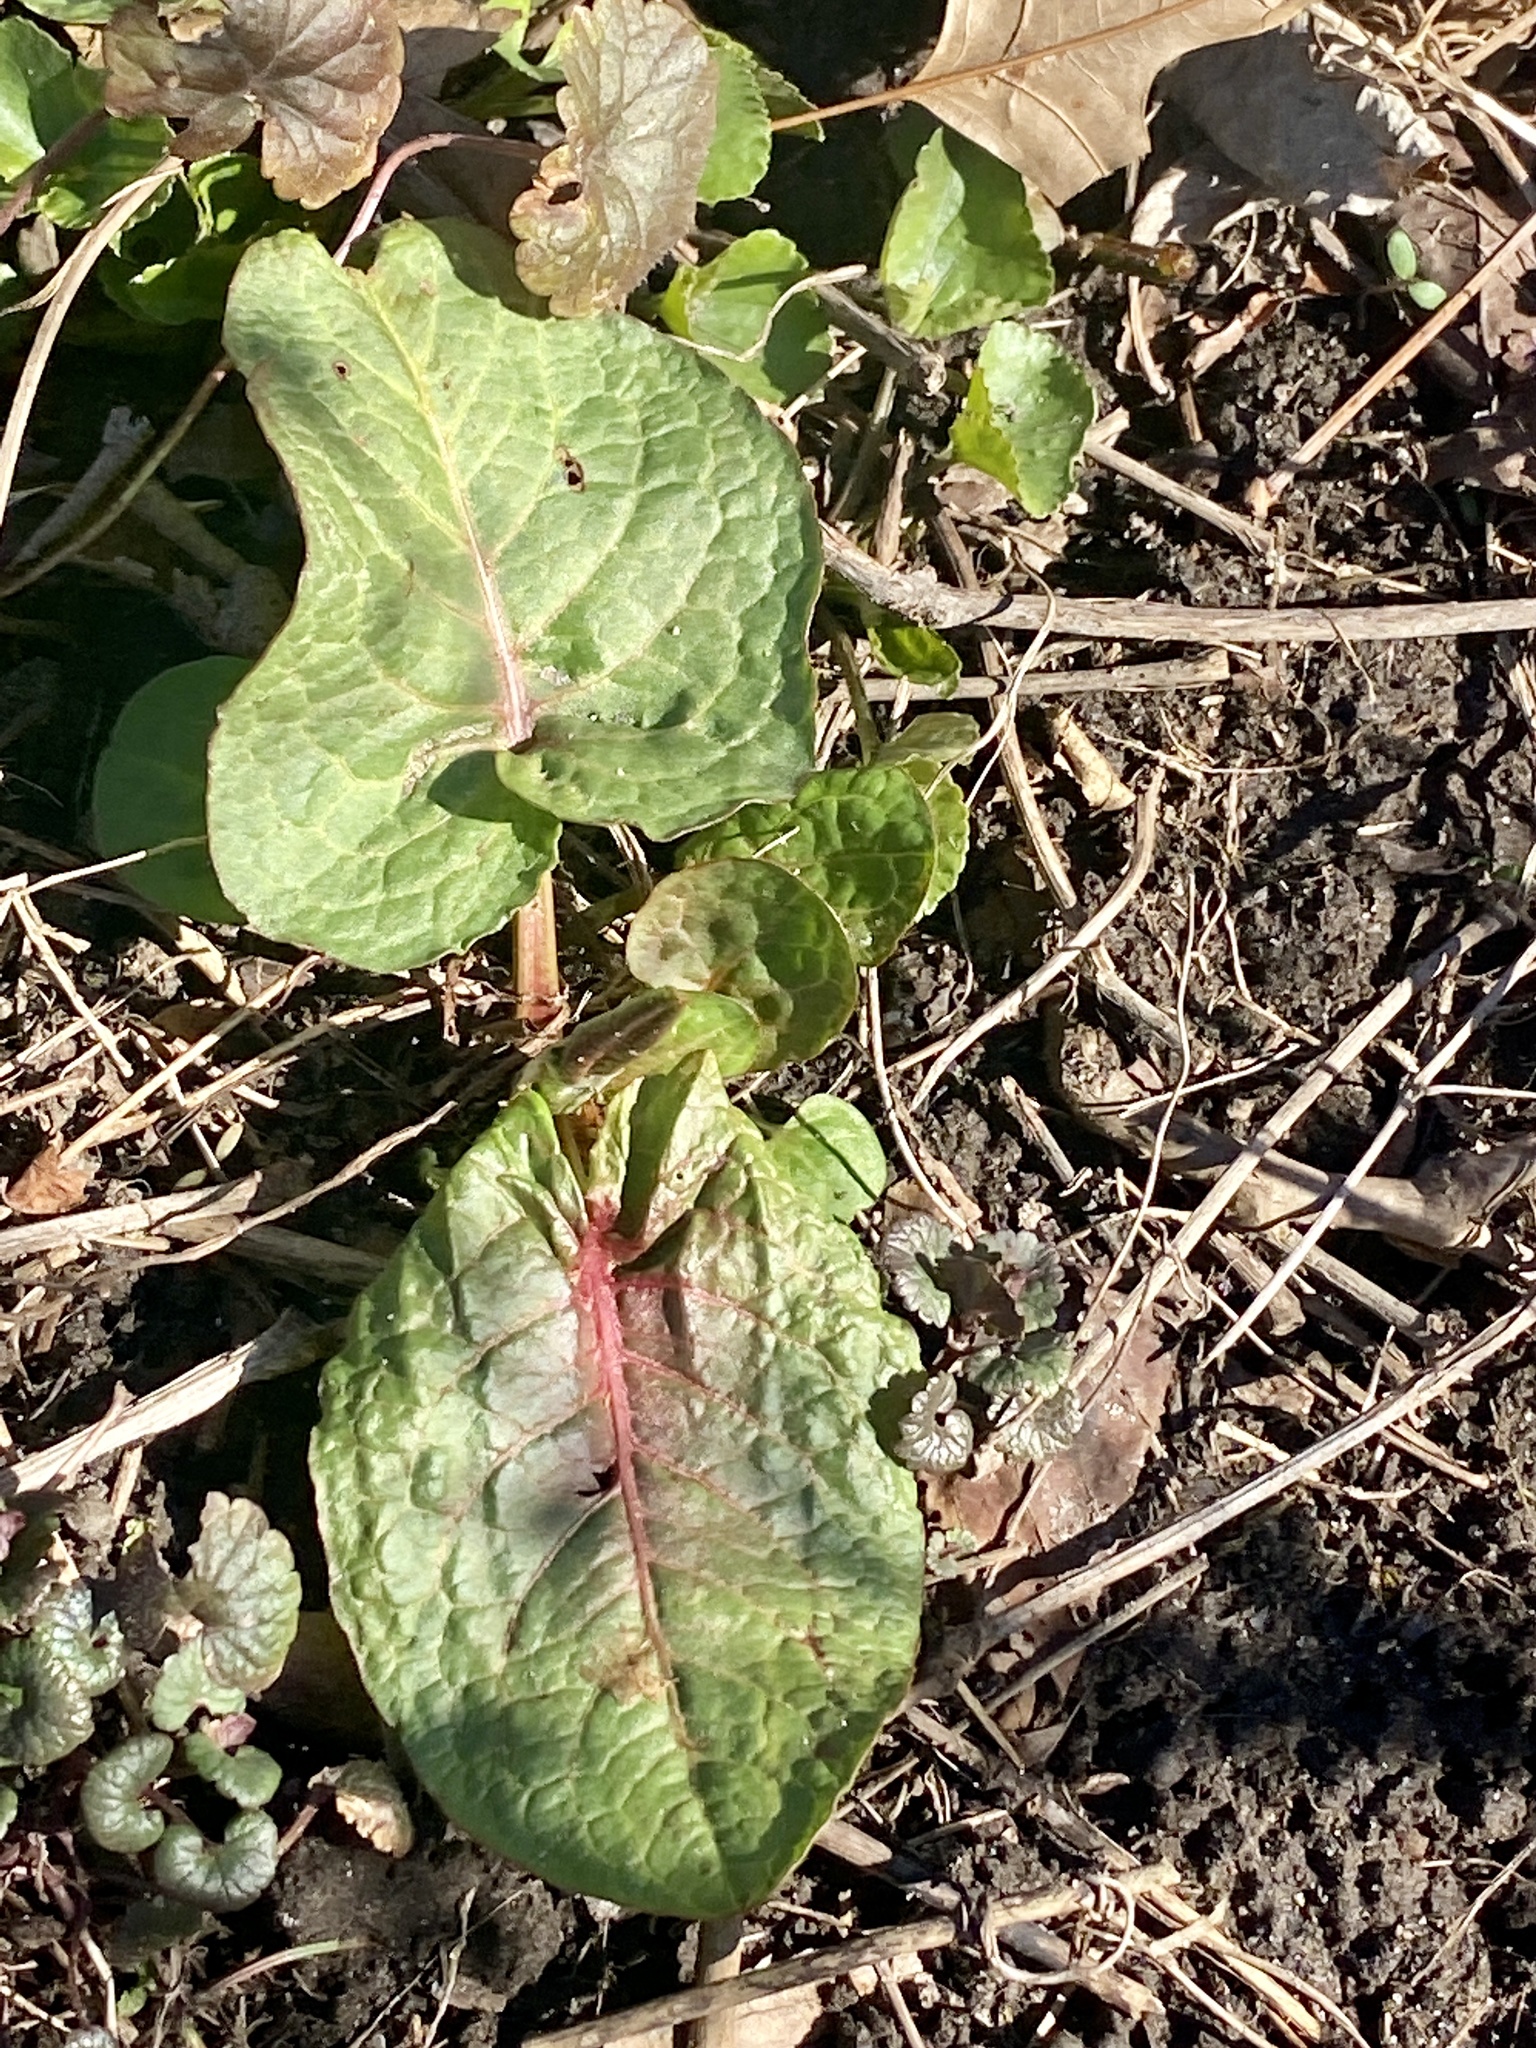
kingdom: Plantae
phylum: Tracheophyta
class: Magnoliopsida
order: Caryophyllales
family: Polygonaceae
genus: Rumex
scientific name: Rumex obtusifolius
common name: Bitter dock
